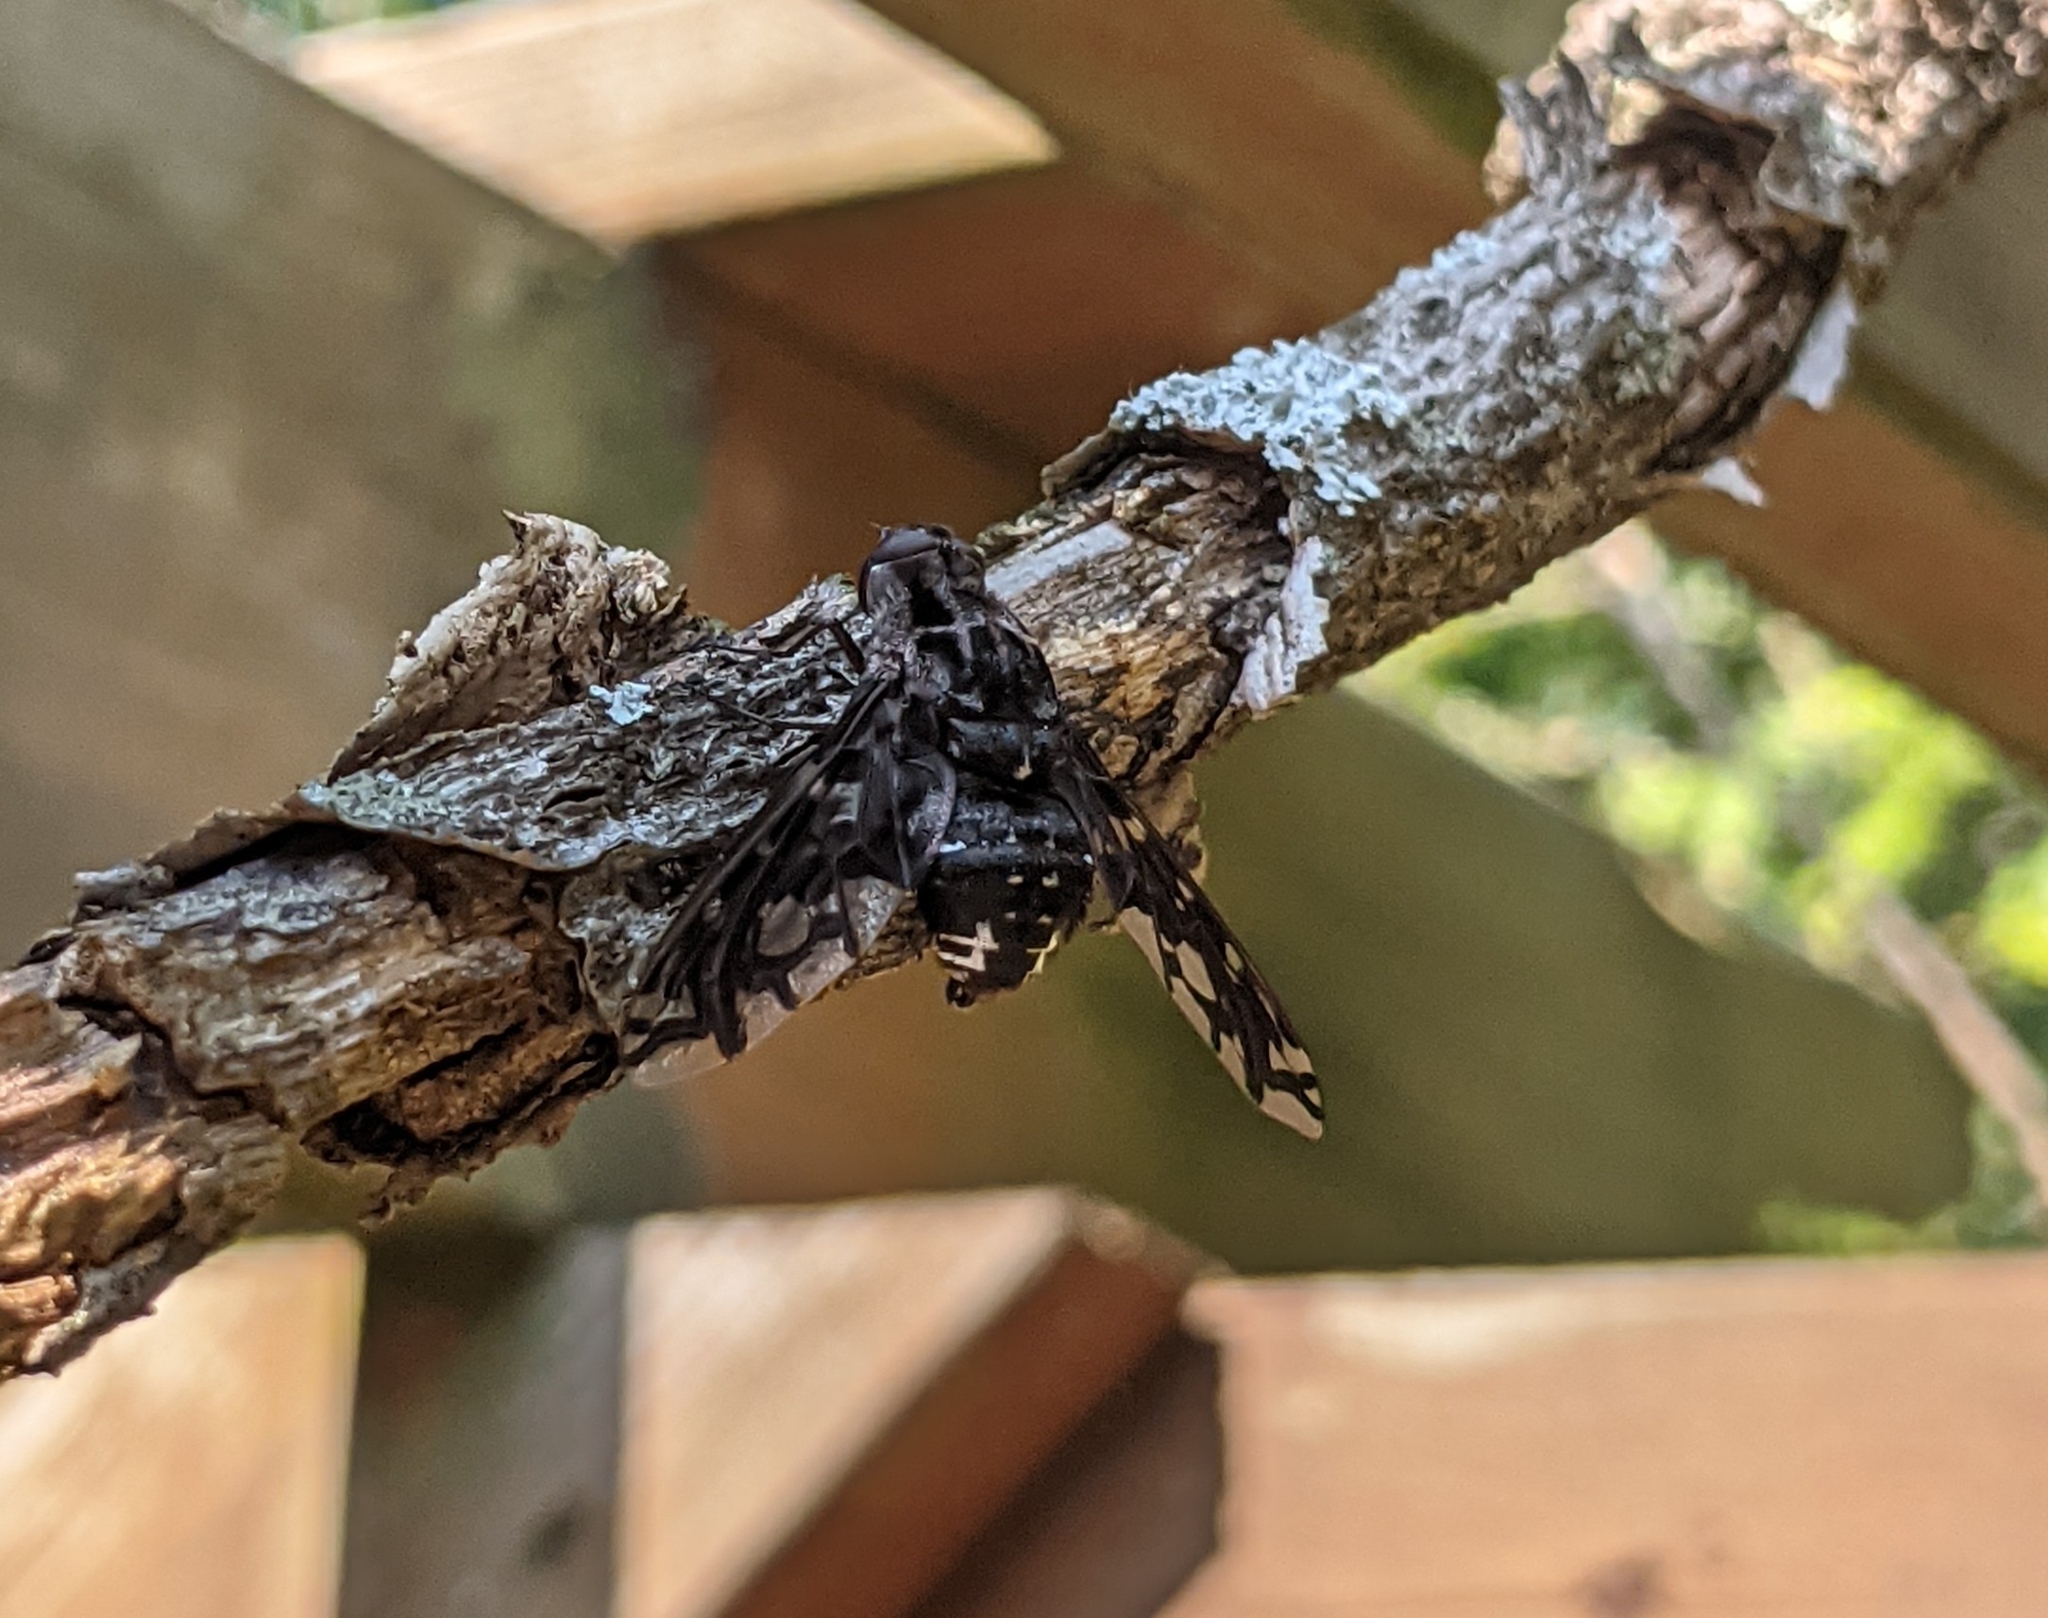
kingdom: Animalia
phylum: Arthropoda
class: Insecta
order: Diptera
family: Bombyliidae
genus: Xenox
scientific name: Xenox tigrinus
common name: Tiger bee fly
